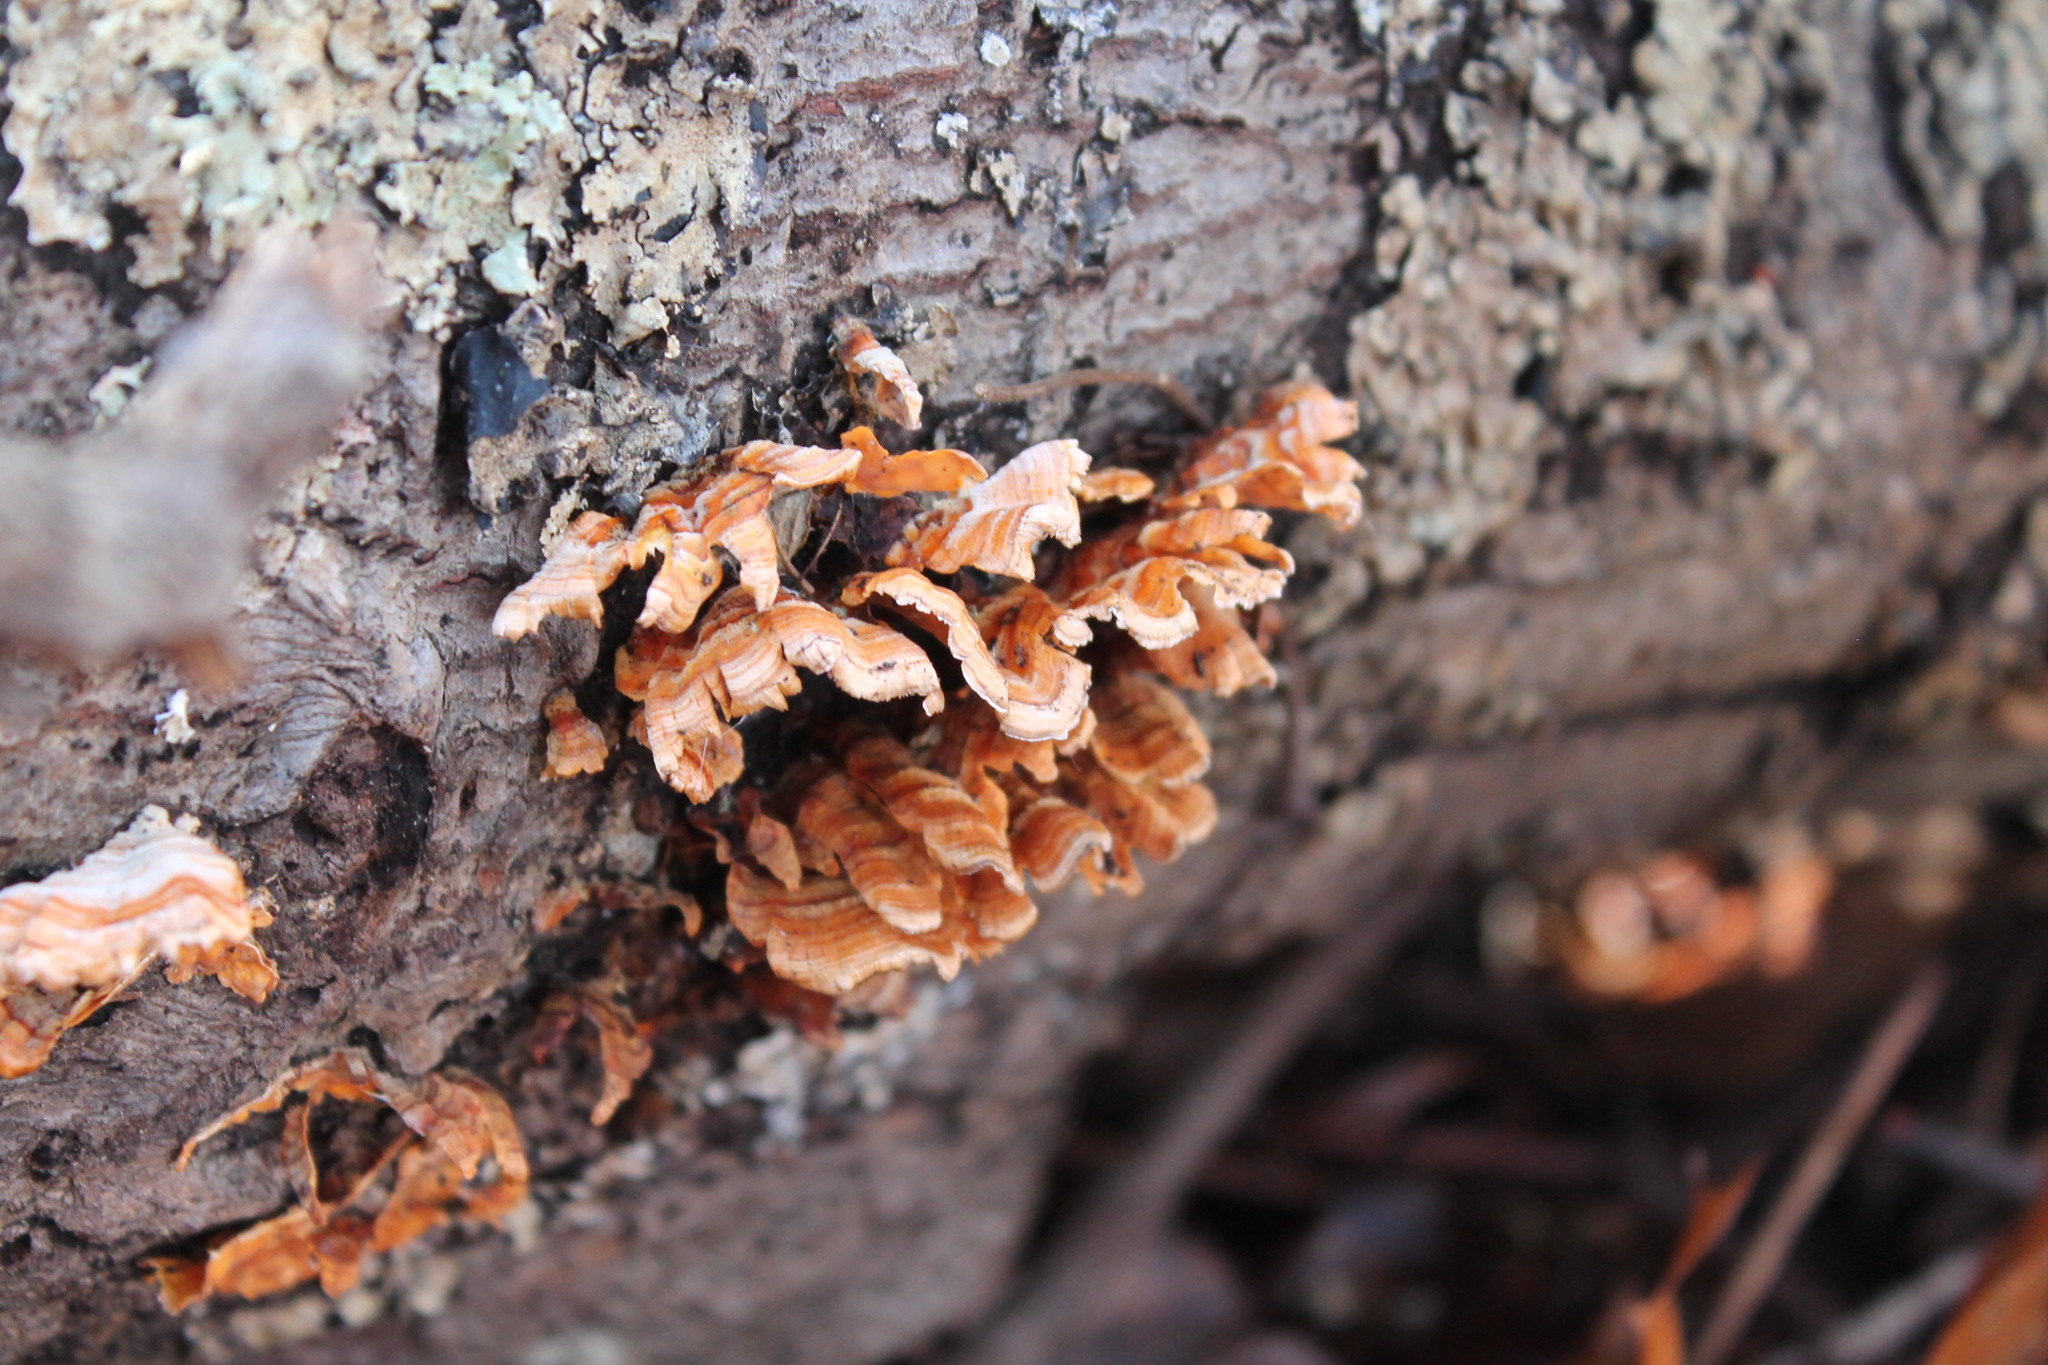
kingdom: Fungi
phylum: Basidiomycota
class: Agaricomycetes
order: Russulales
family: Stereaceae
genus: Stereum
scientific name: Stereum complicatum
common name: Crowded parchment
